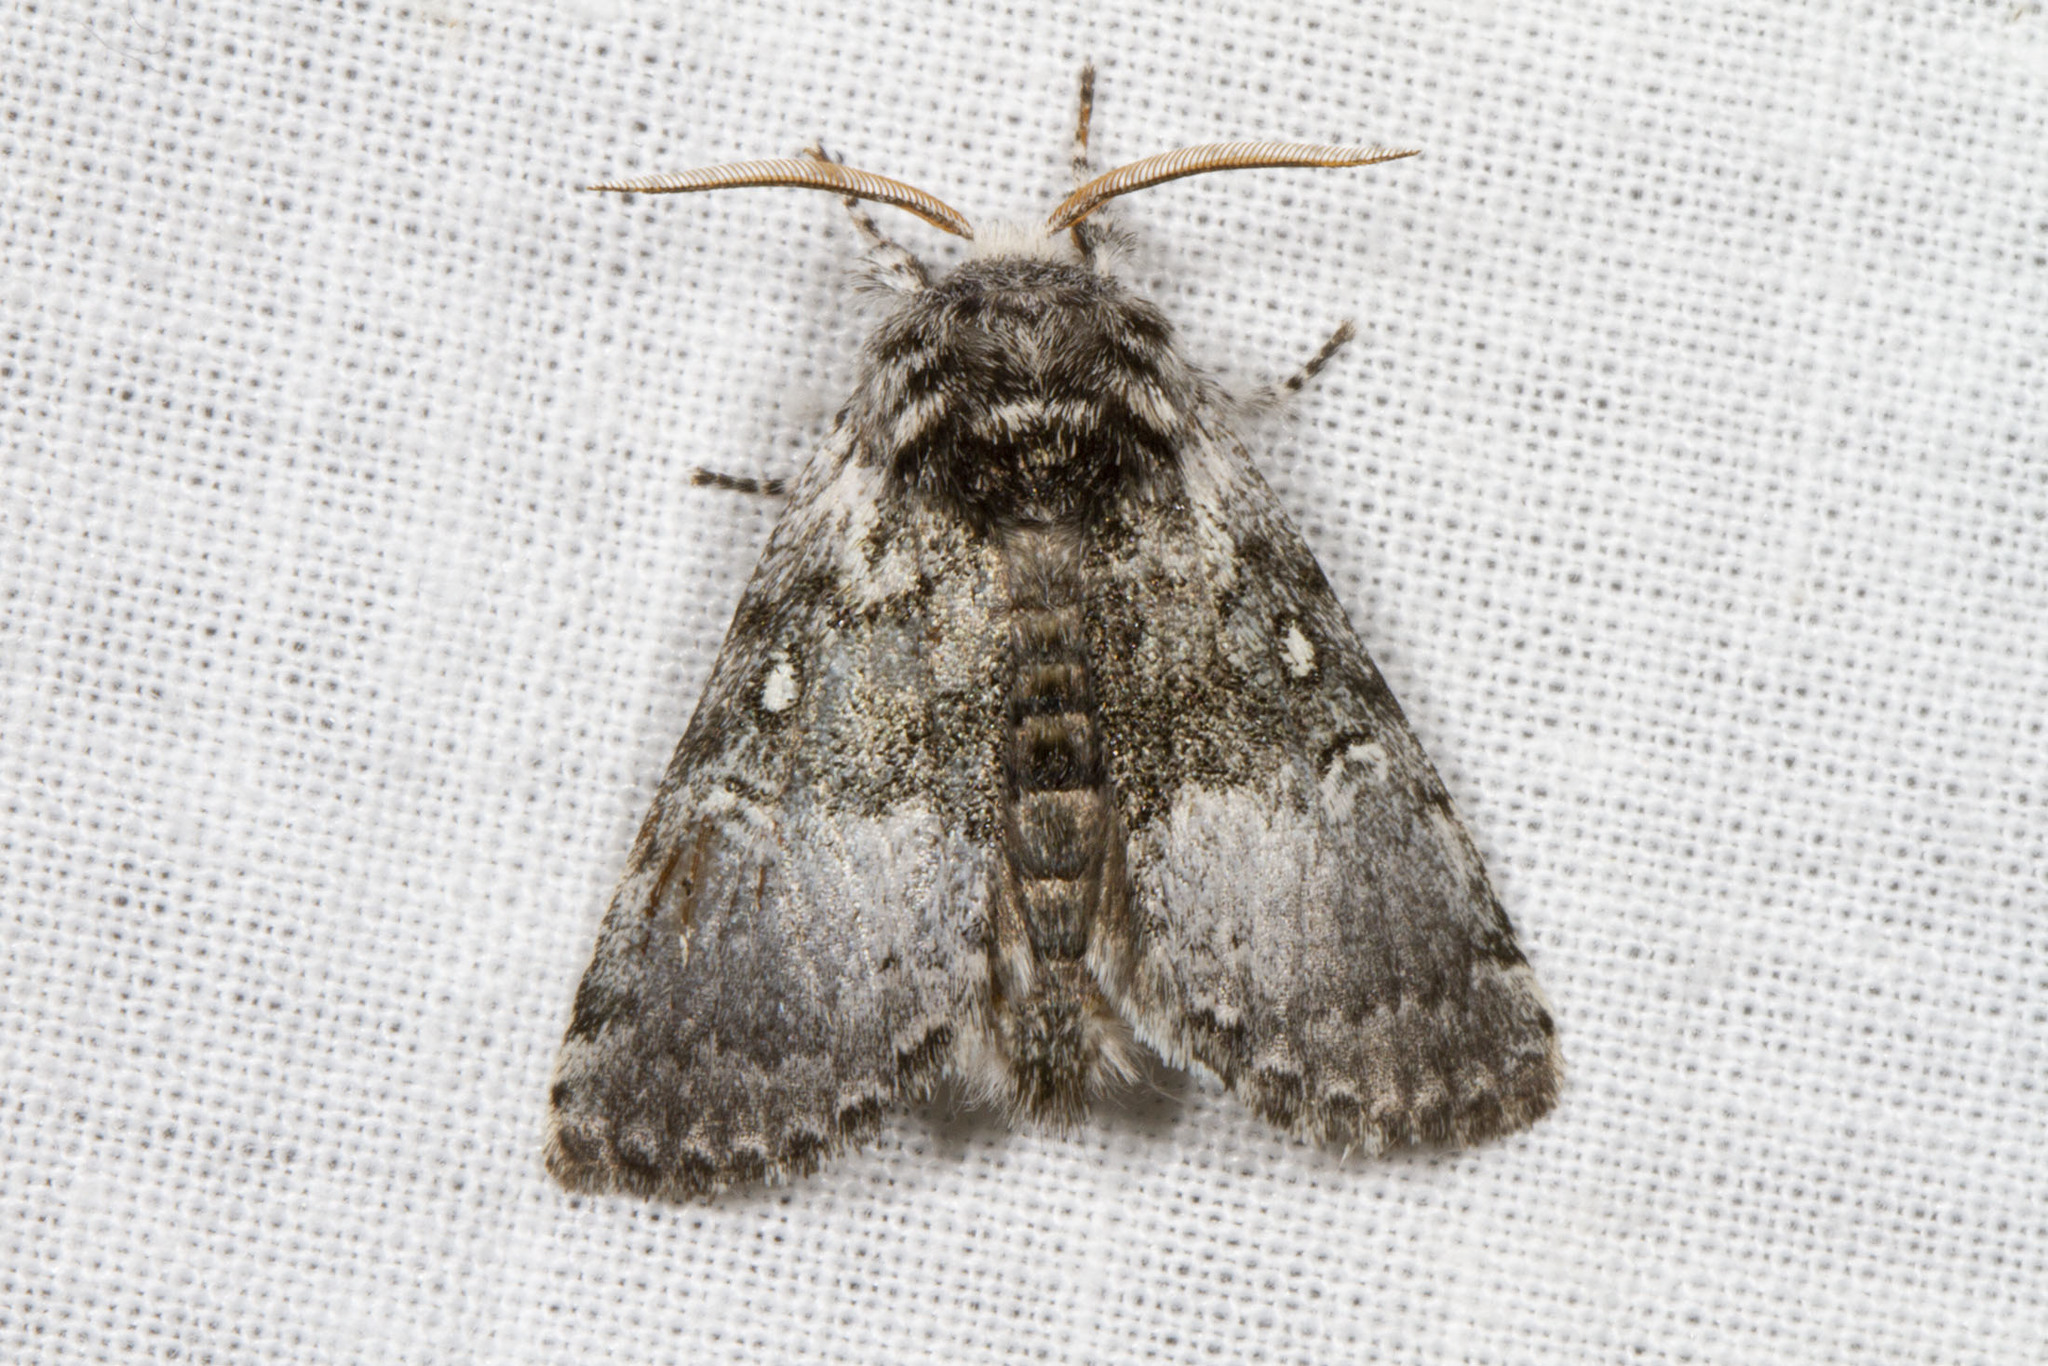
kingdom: Animalia
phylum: Arthropoda
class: Insecta
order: Lepidoptera
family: Noctuidae
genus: Colocasia
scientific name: Colocasia propinquilinea
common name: Close-banded demas
